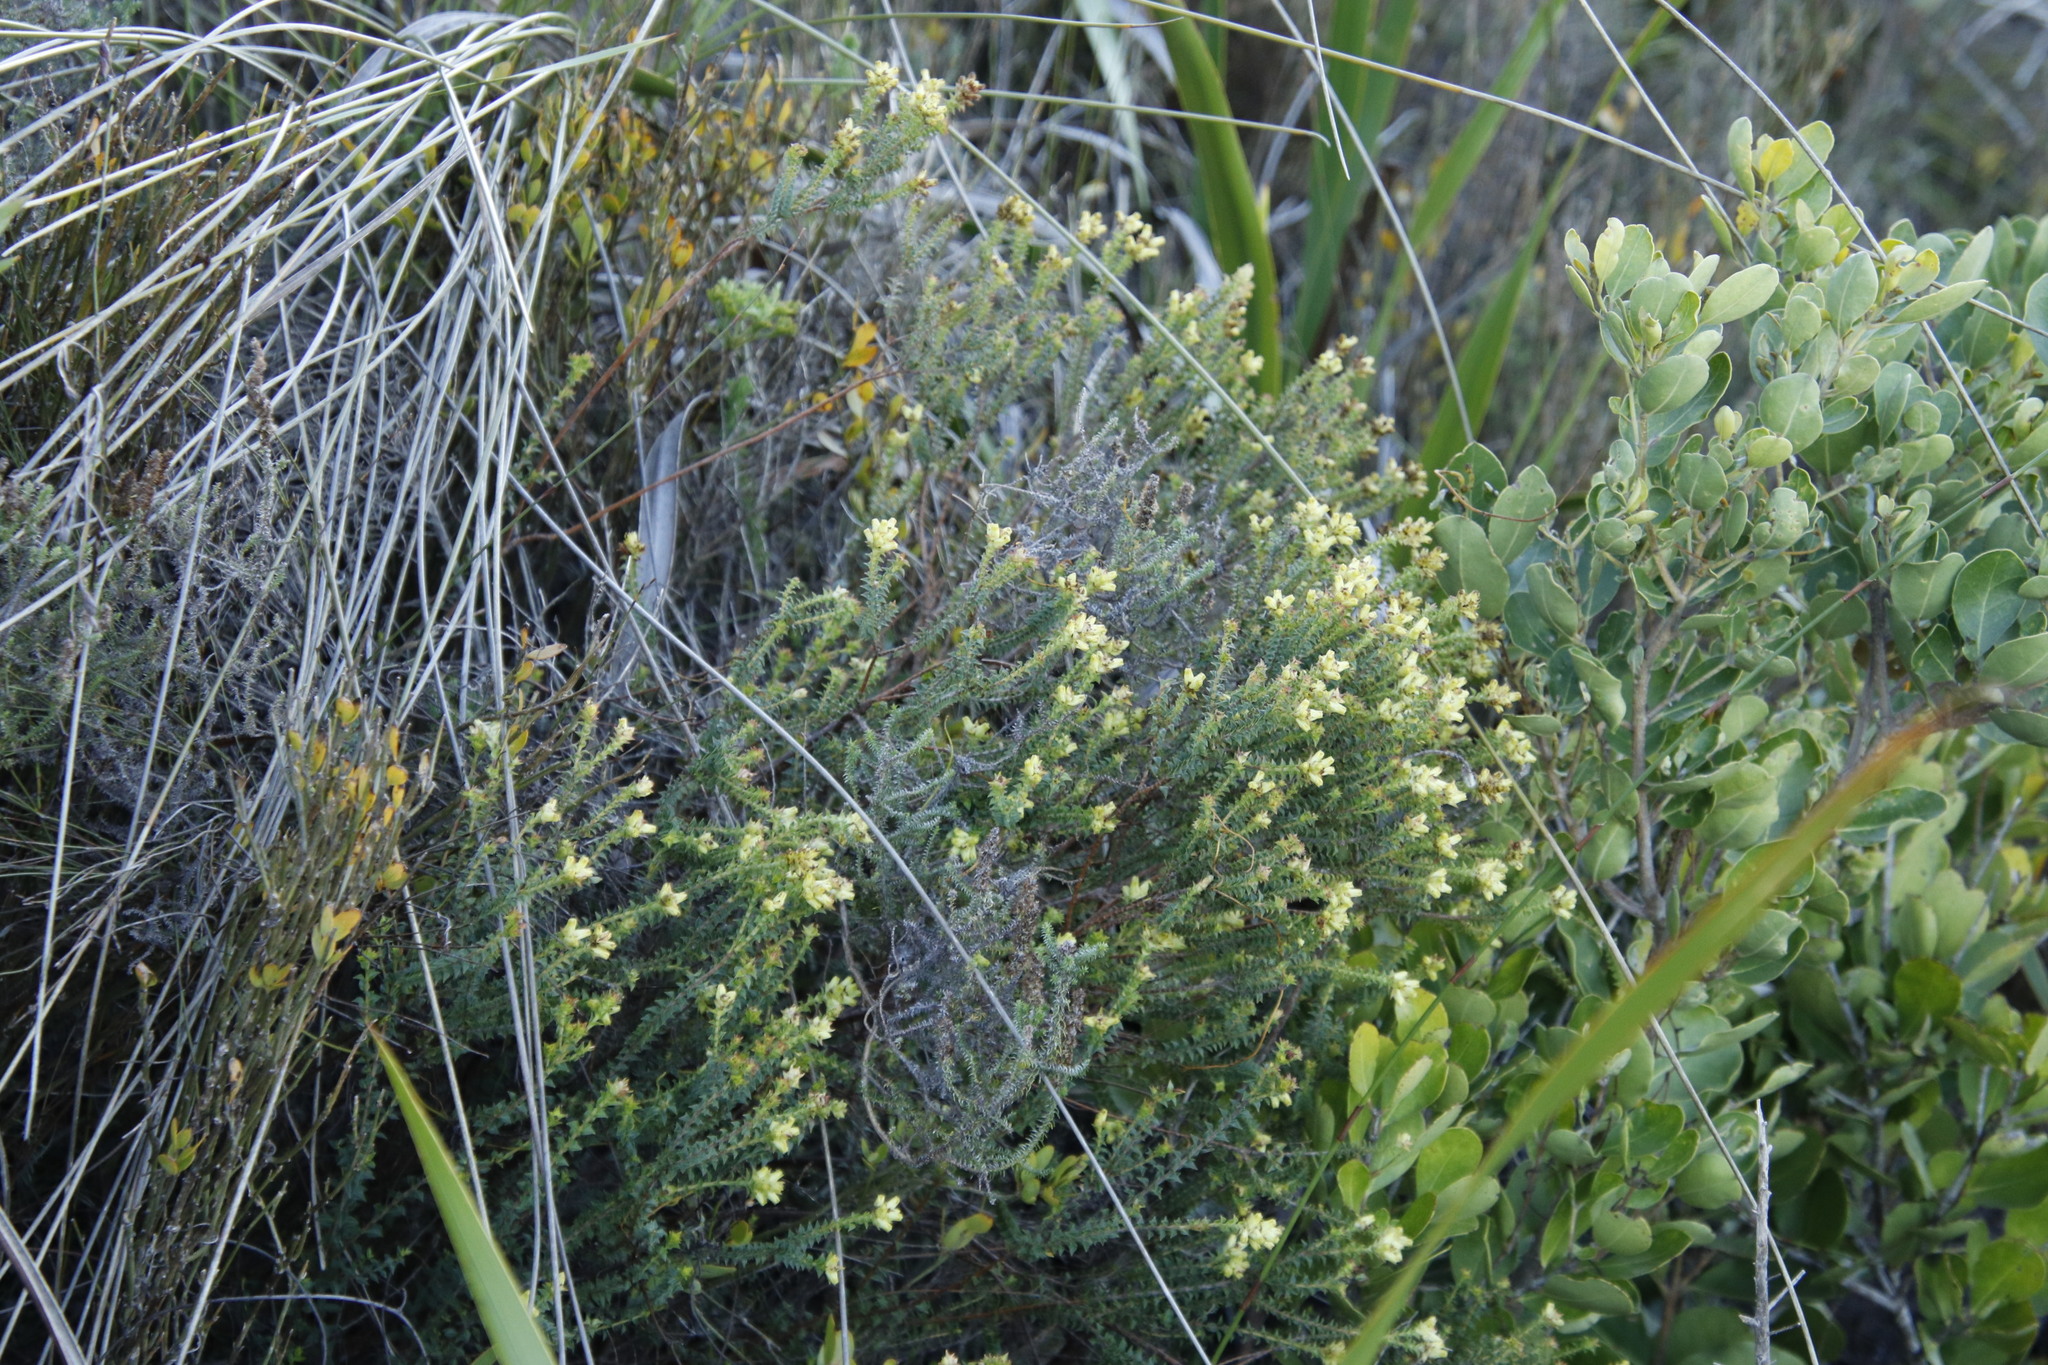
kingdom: Plantae
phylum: Tracheophyta
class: Magnoliopsida
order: Myrtales
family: Penaeaceae
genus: Penaea
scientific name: Penaea mucronata
